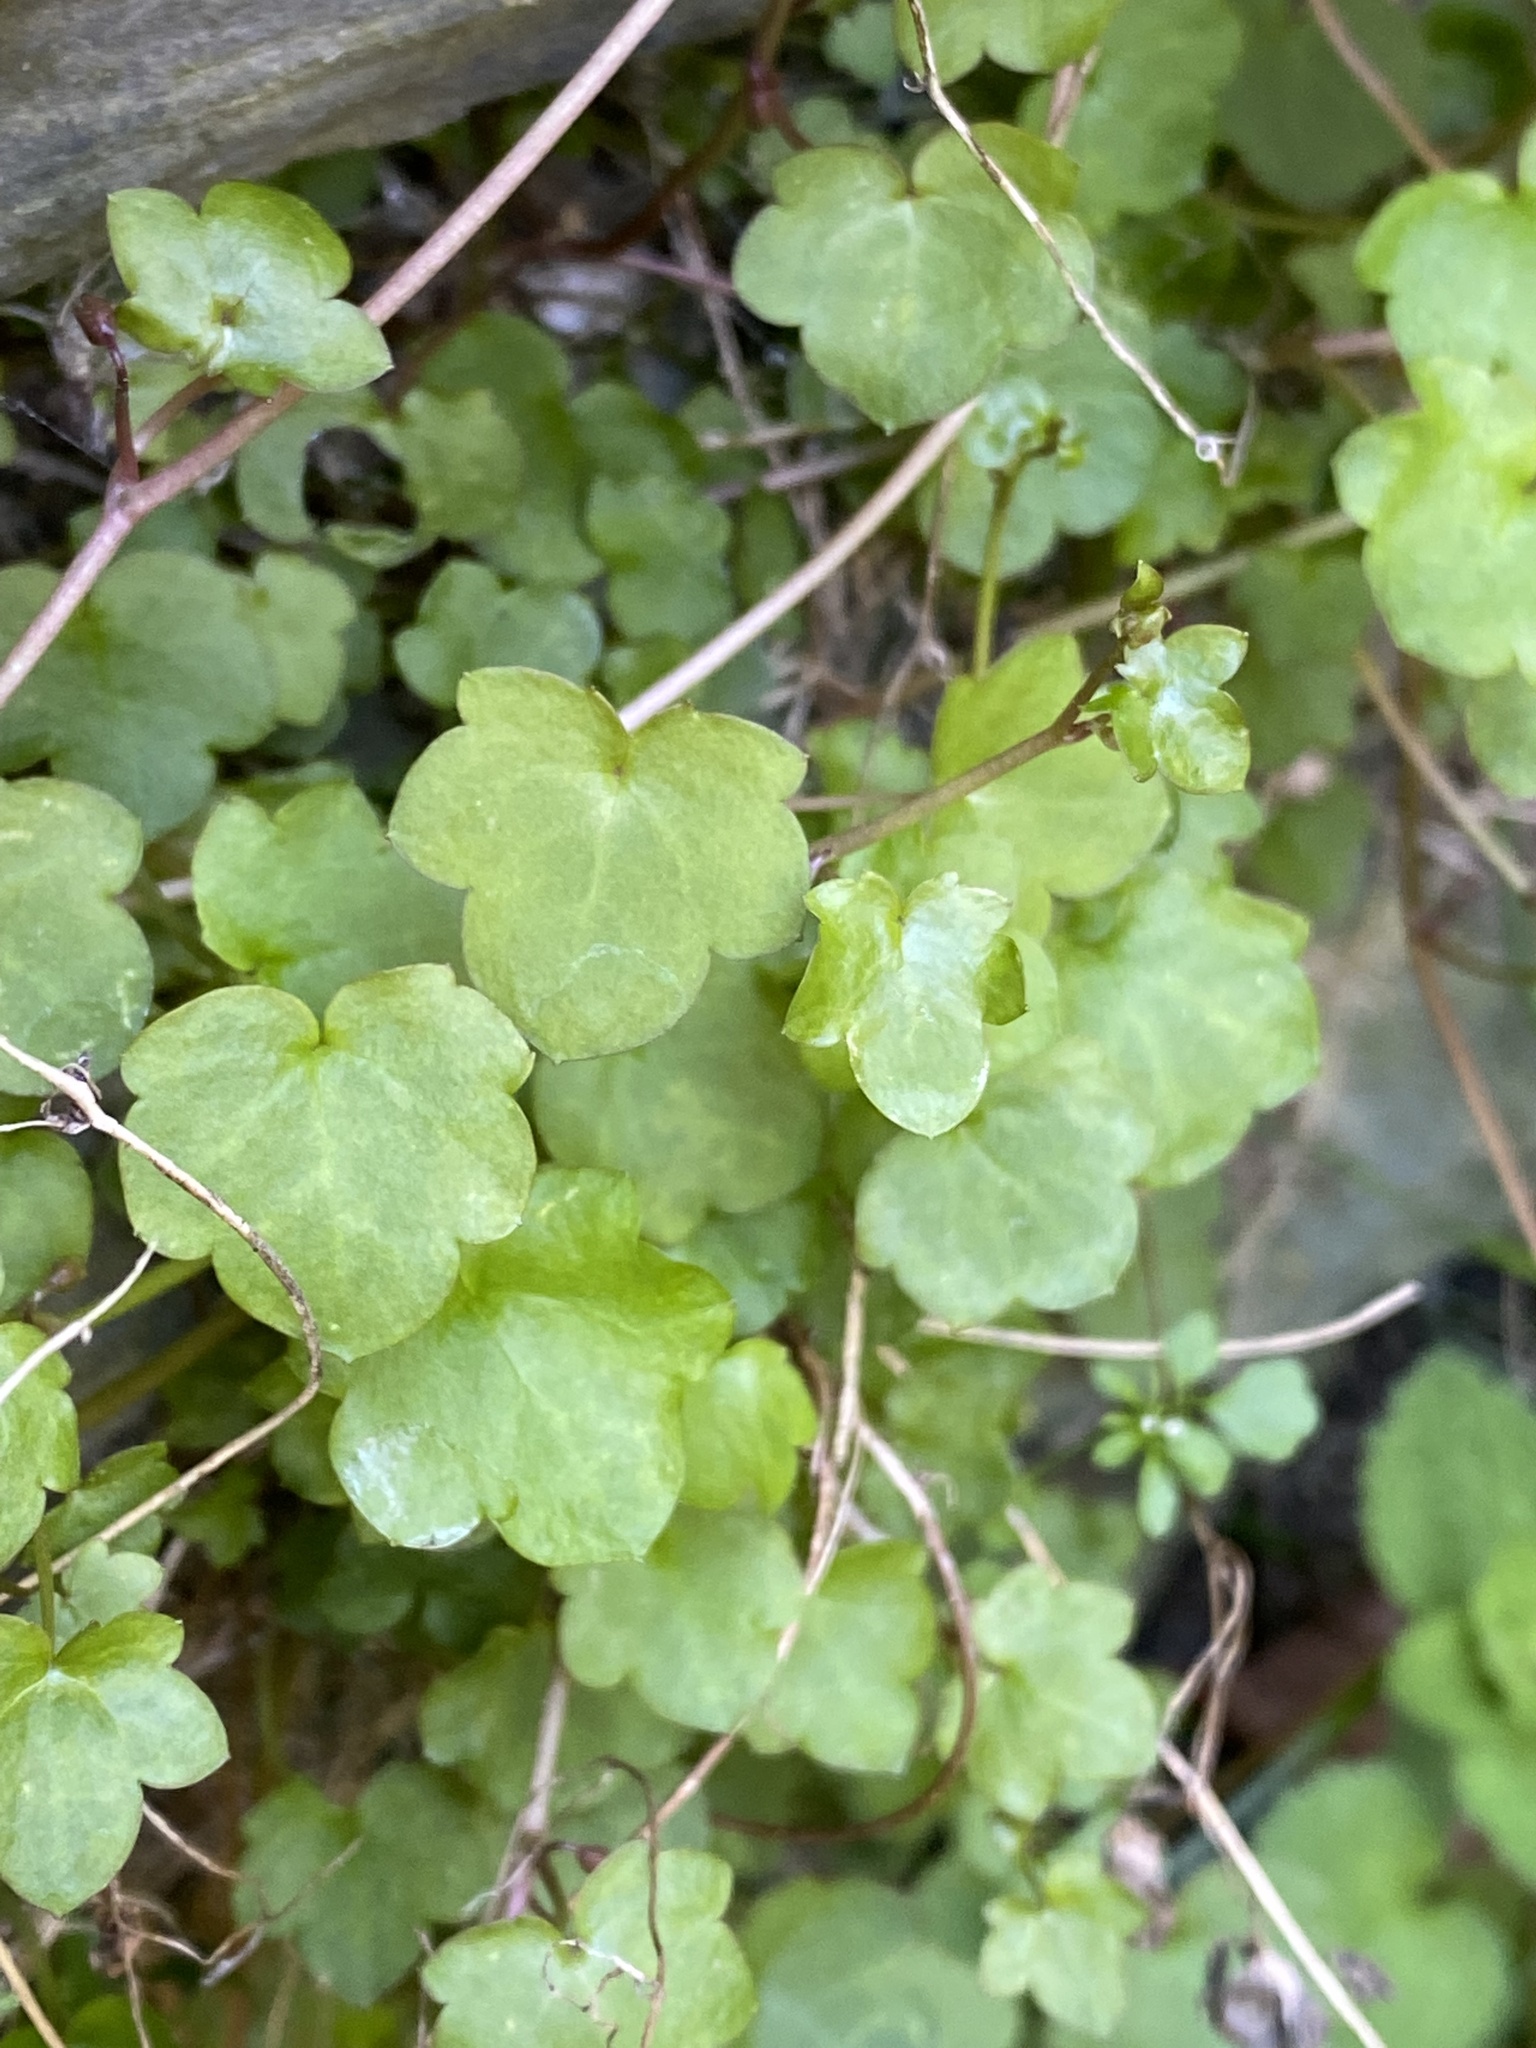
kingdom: Plantae
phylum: Tracheophyta
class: Magnoliopsida
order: Lamiales
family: Plantaginaceae
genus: Cymbalaria
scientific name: Cymbalaria muralis
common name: Ivy-leaved toadflax
